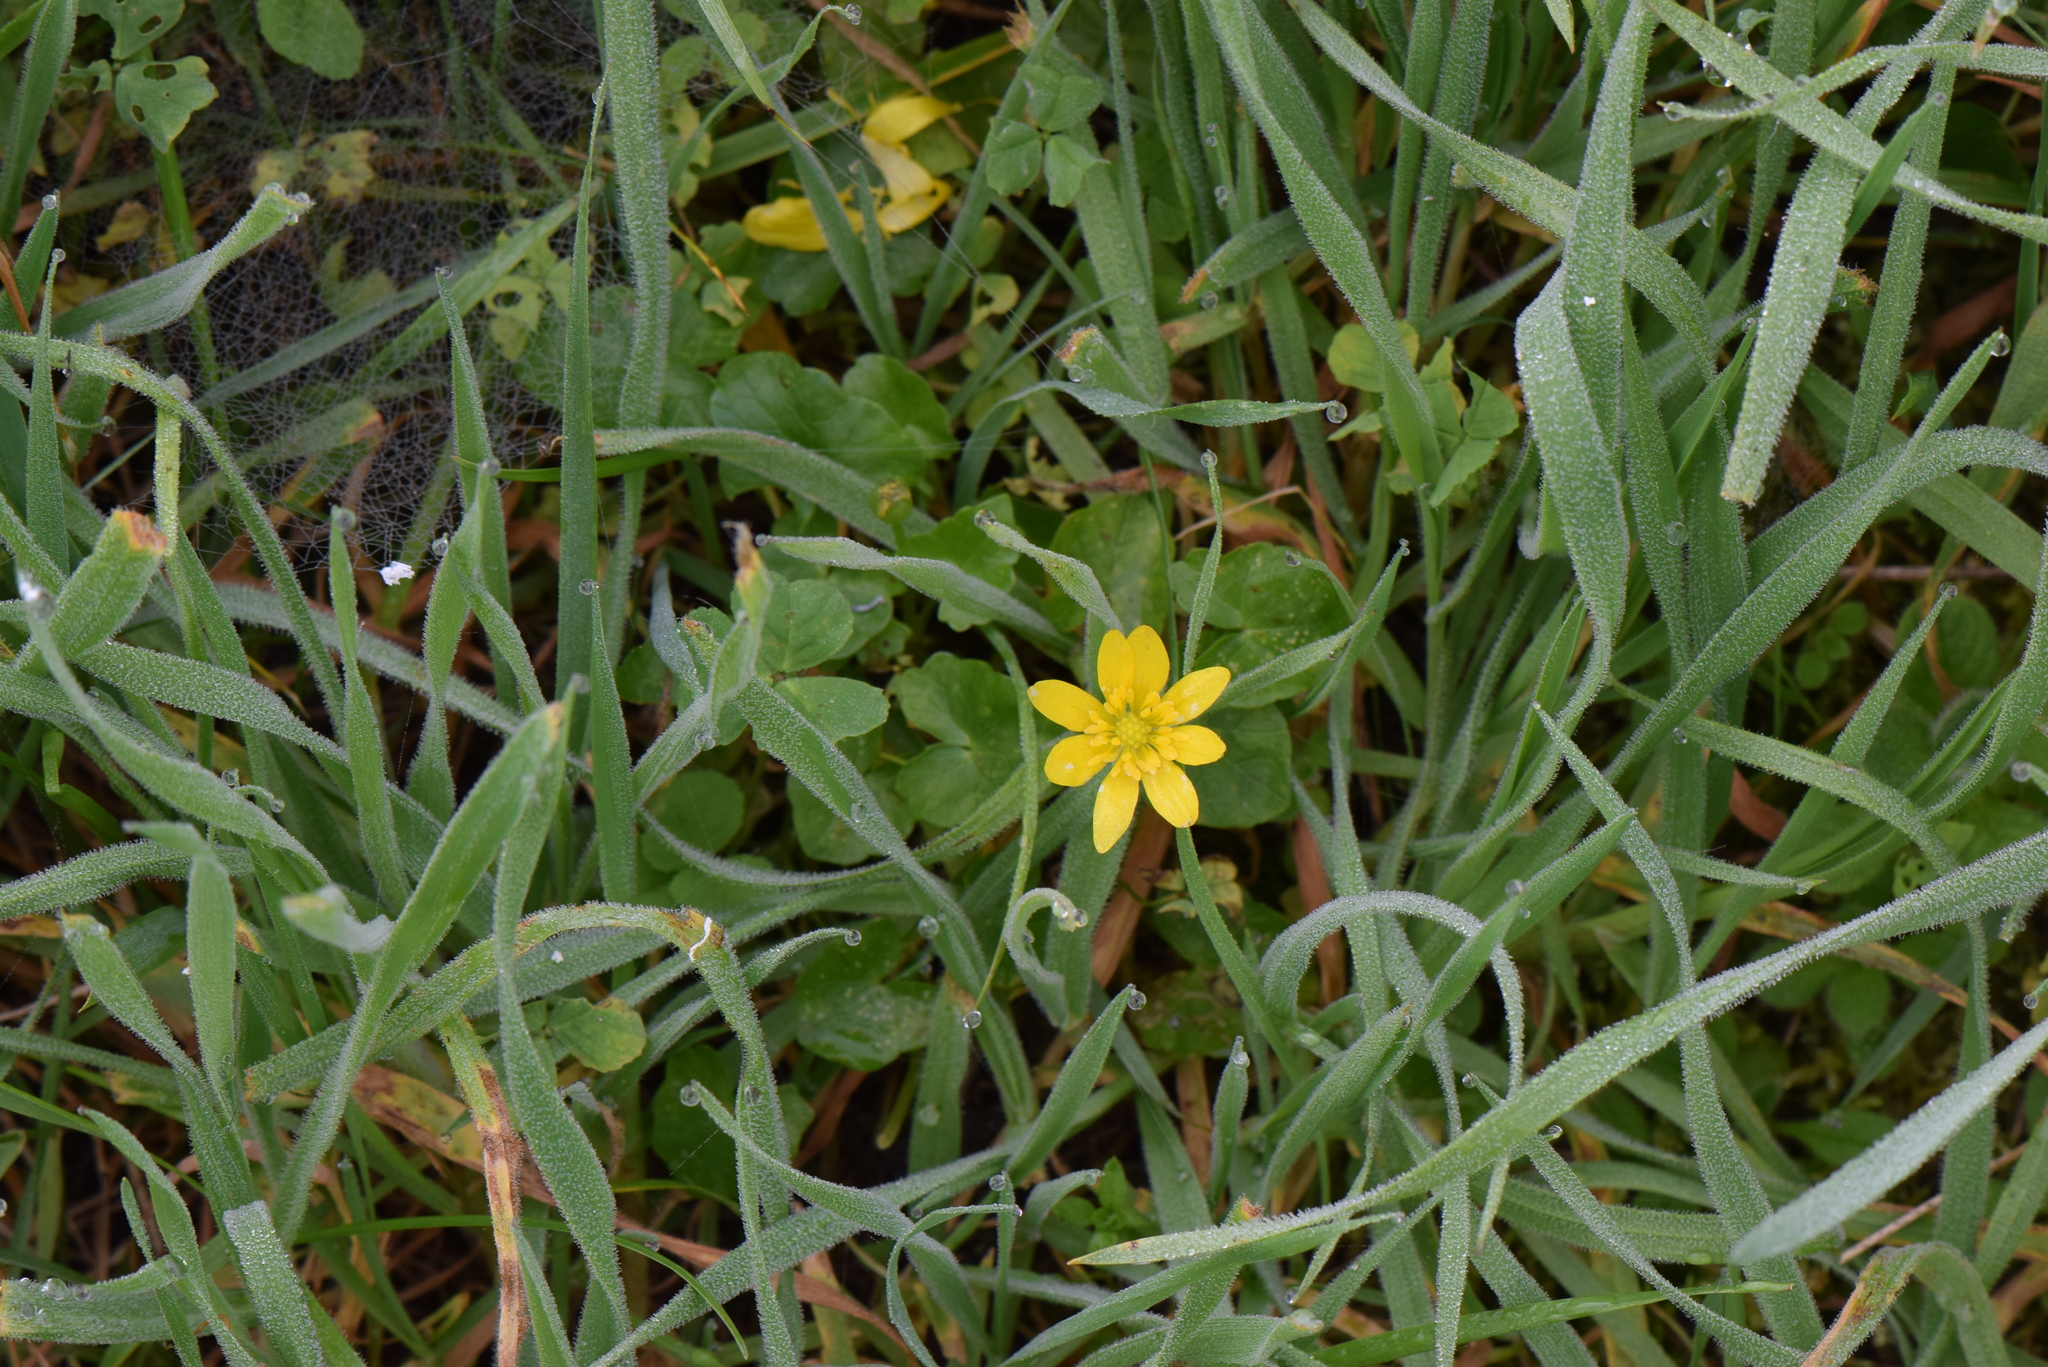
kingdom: Plantae
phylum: Tracheophyta
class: Magnoliopsida
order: Ranunculales
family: Ranunculaceae
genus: Ficaria
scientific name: Ficaria verna
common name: Lesser celandine
